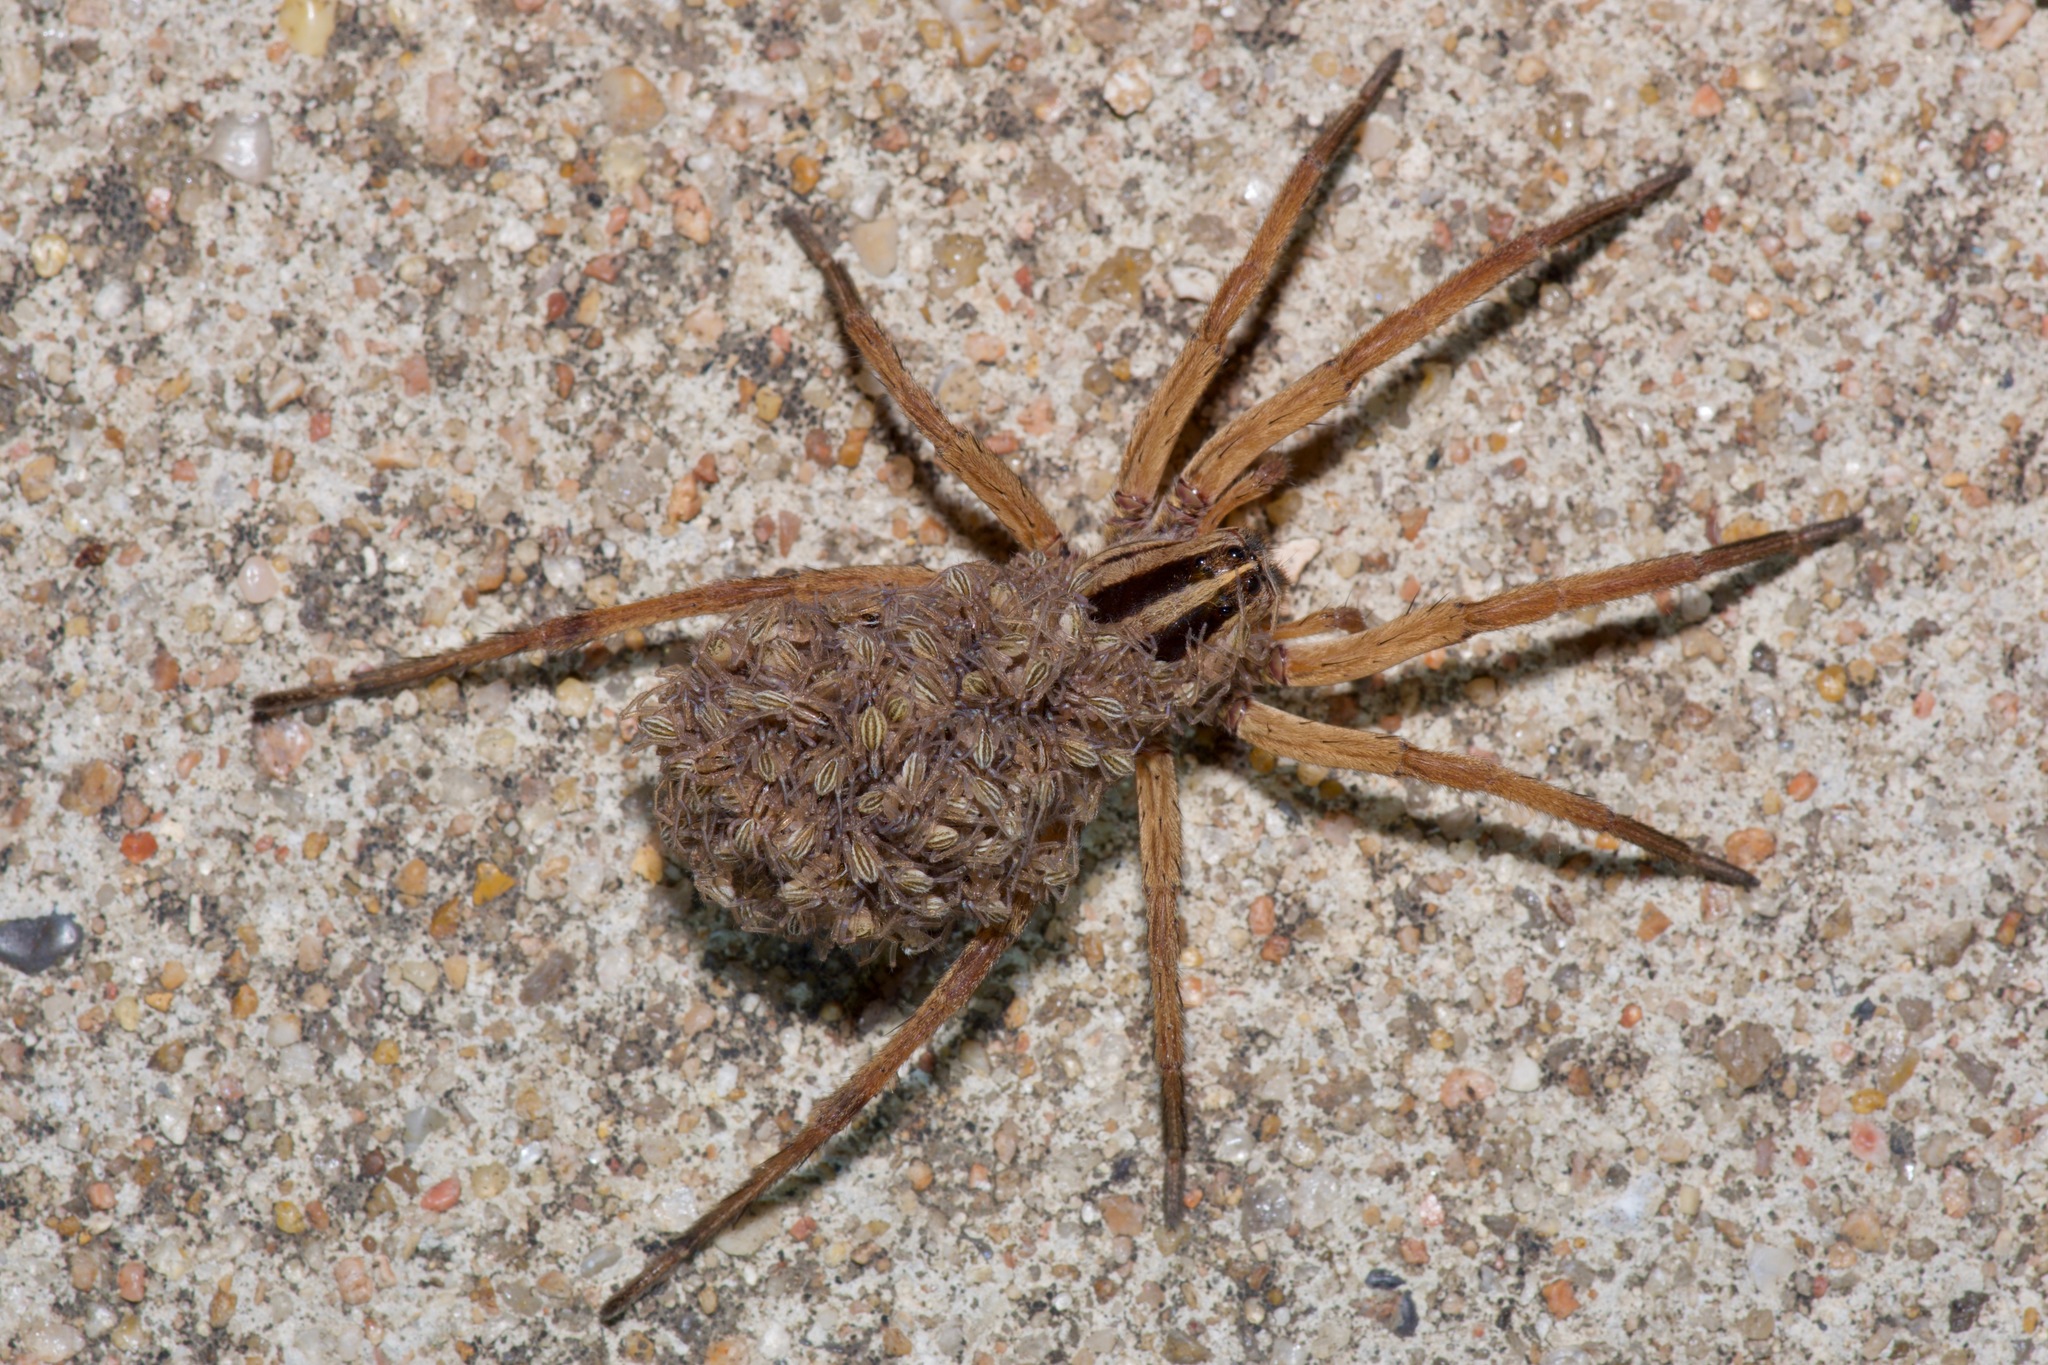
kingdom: Animalia
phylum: Arthropoda
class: Arachnida
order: Araneae
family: Lycosidae
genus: Rabidosa
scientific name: Rabidosa rabida
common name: Rabid wolf spider
